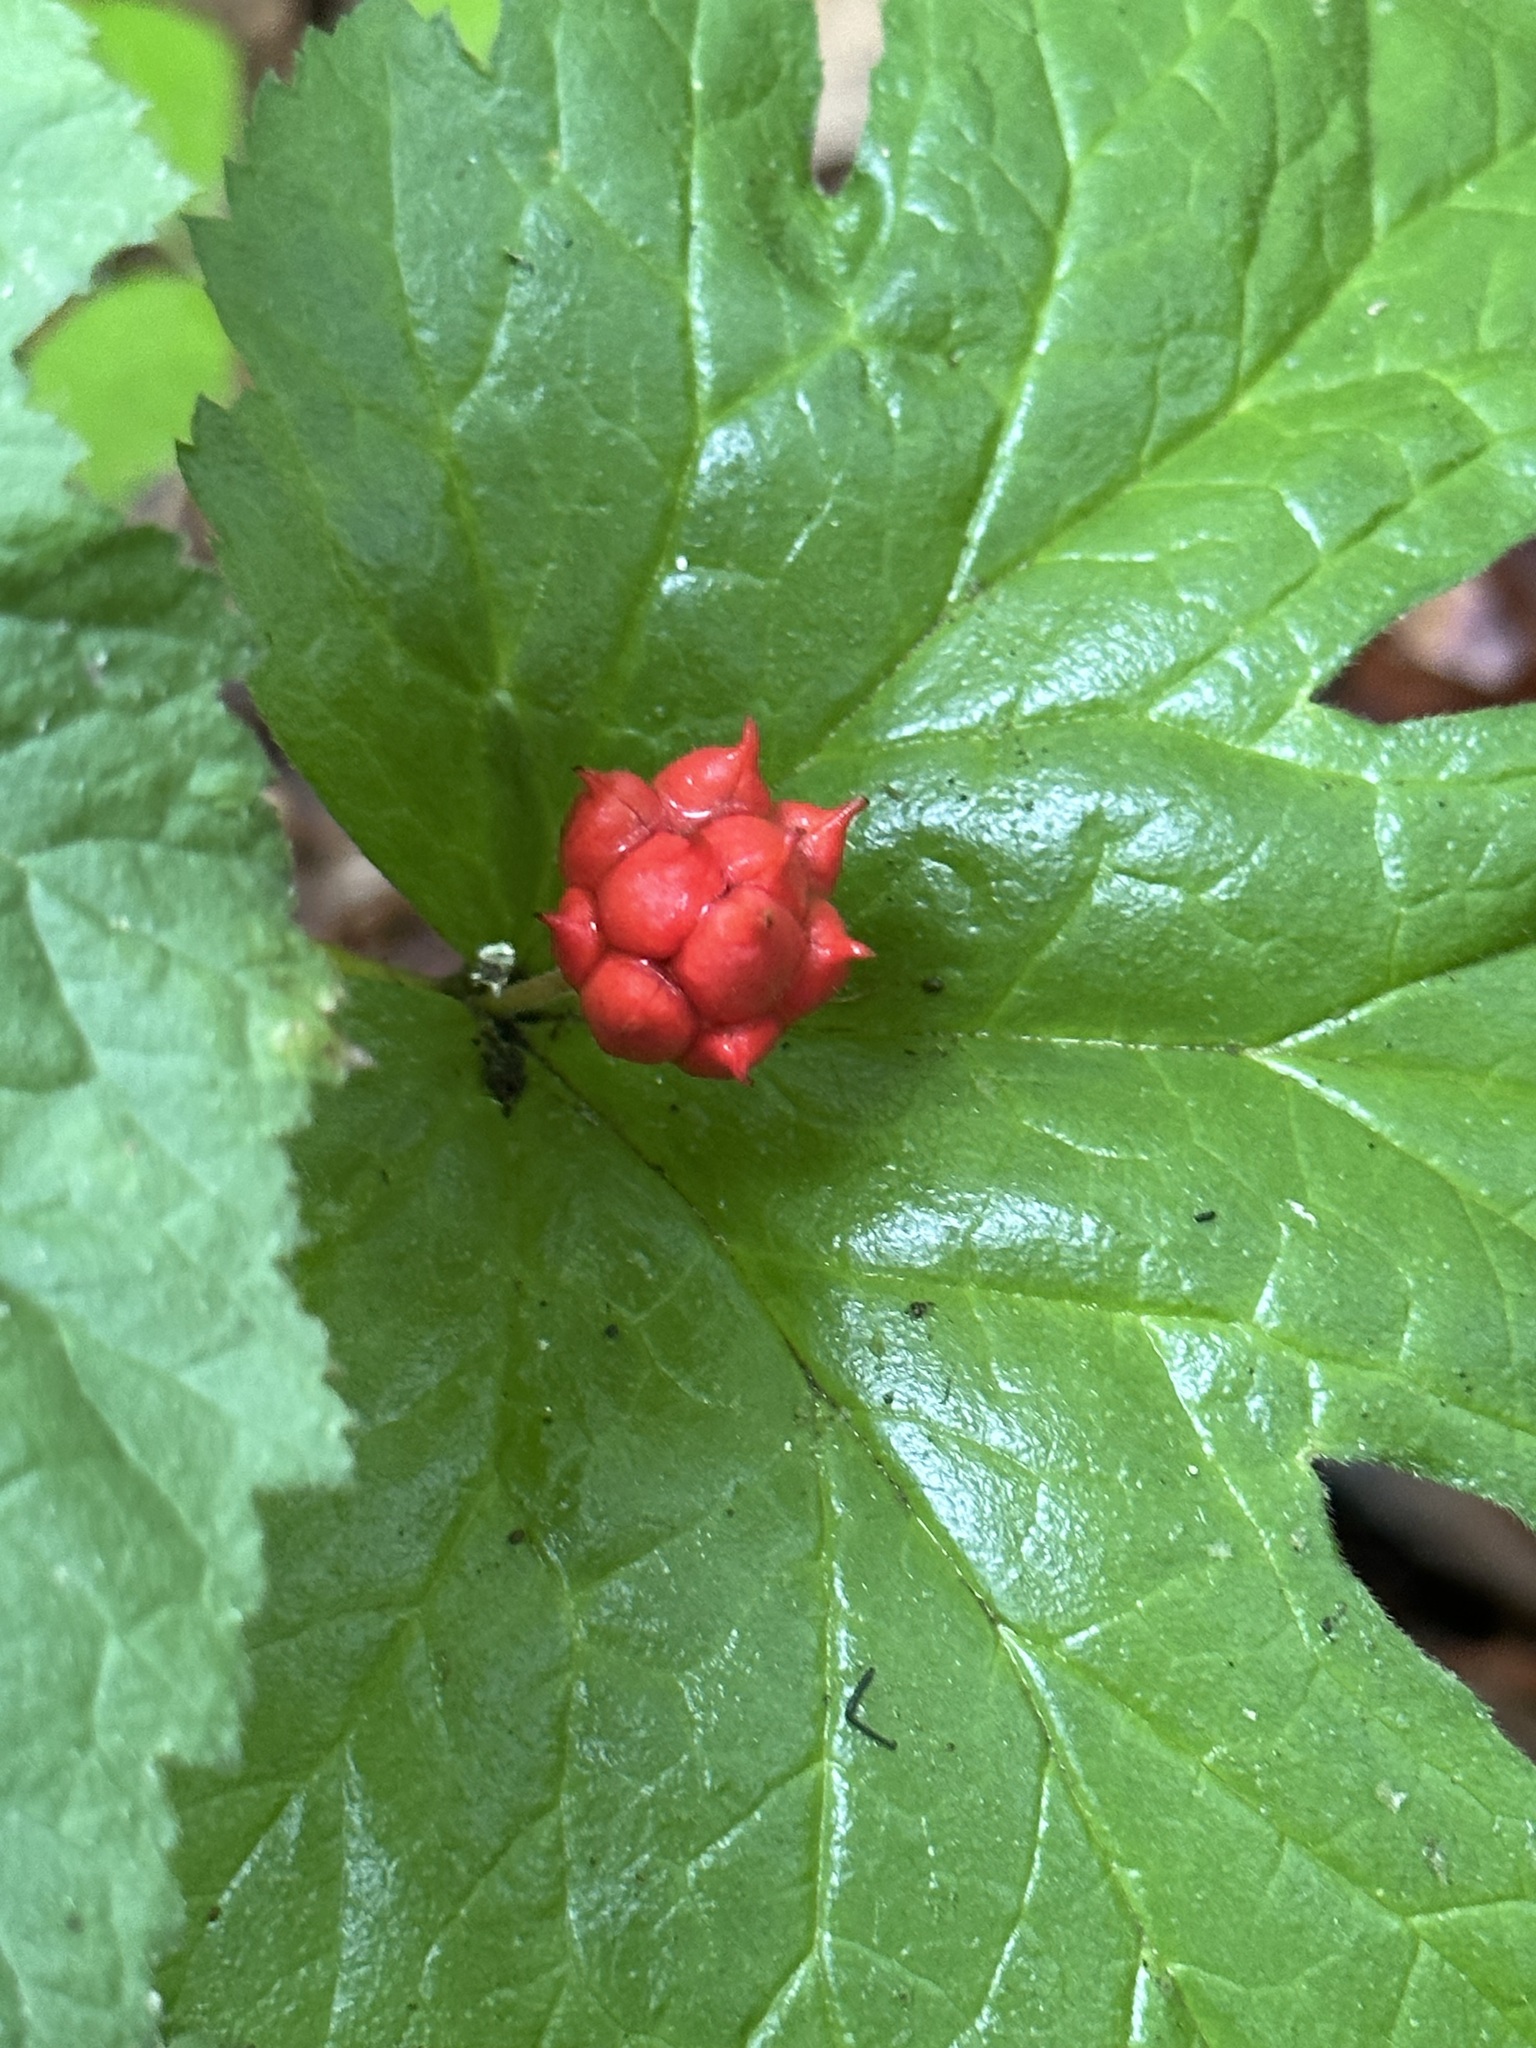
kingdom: Plantae
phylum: Tracheophyta
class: Magnoliopsida
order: Ranunculales
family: Ranunculaceae
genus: Hydrastis
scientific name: Hydrastis canadensis
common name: Goldenseal
